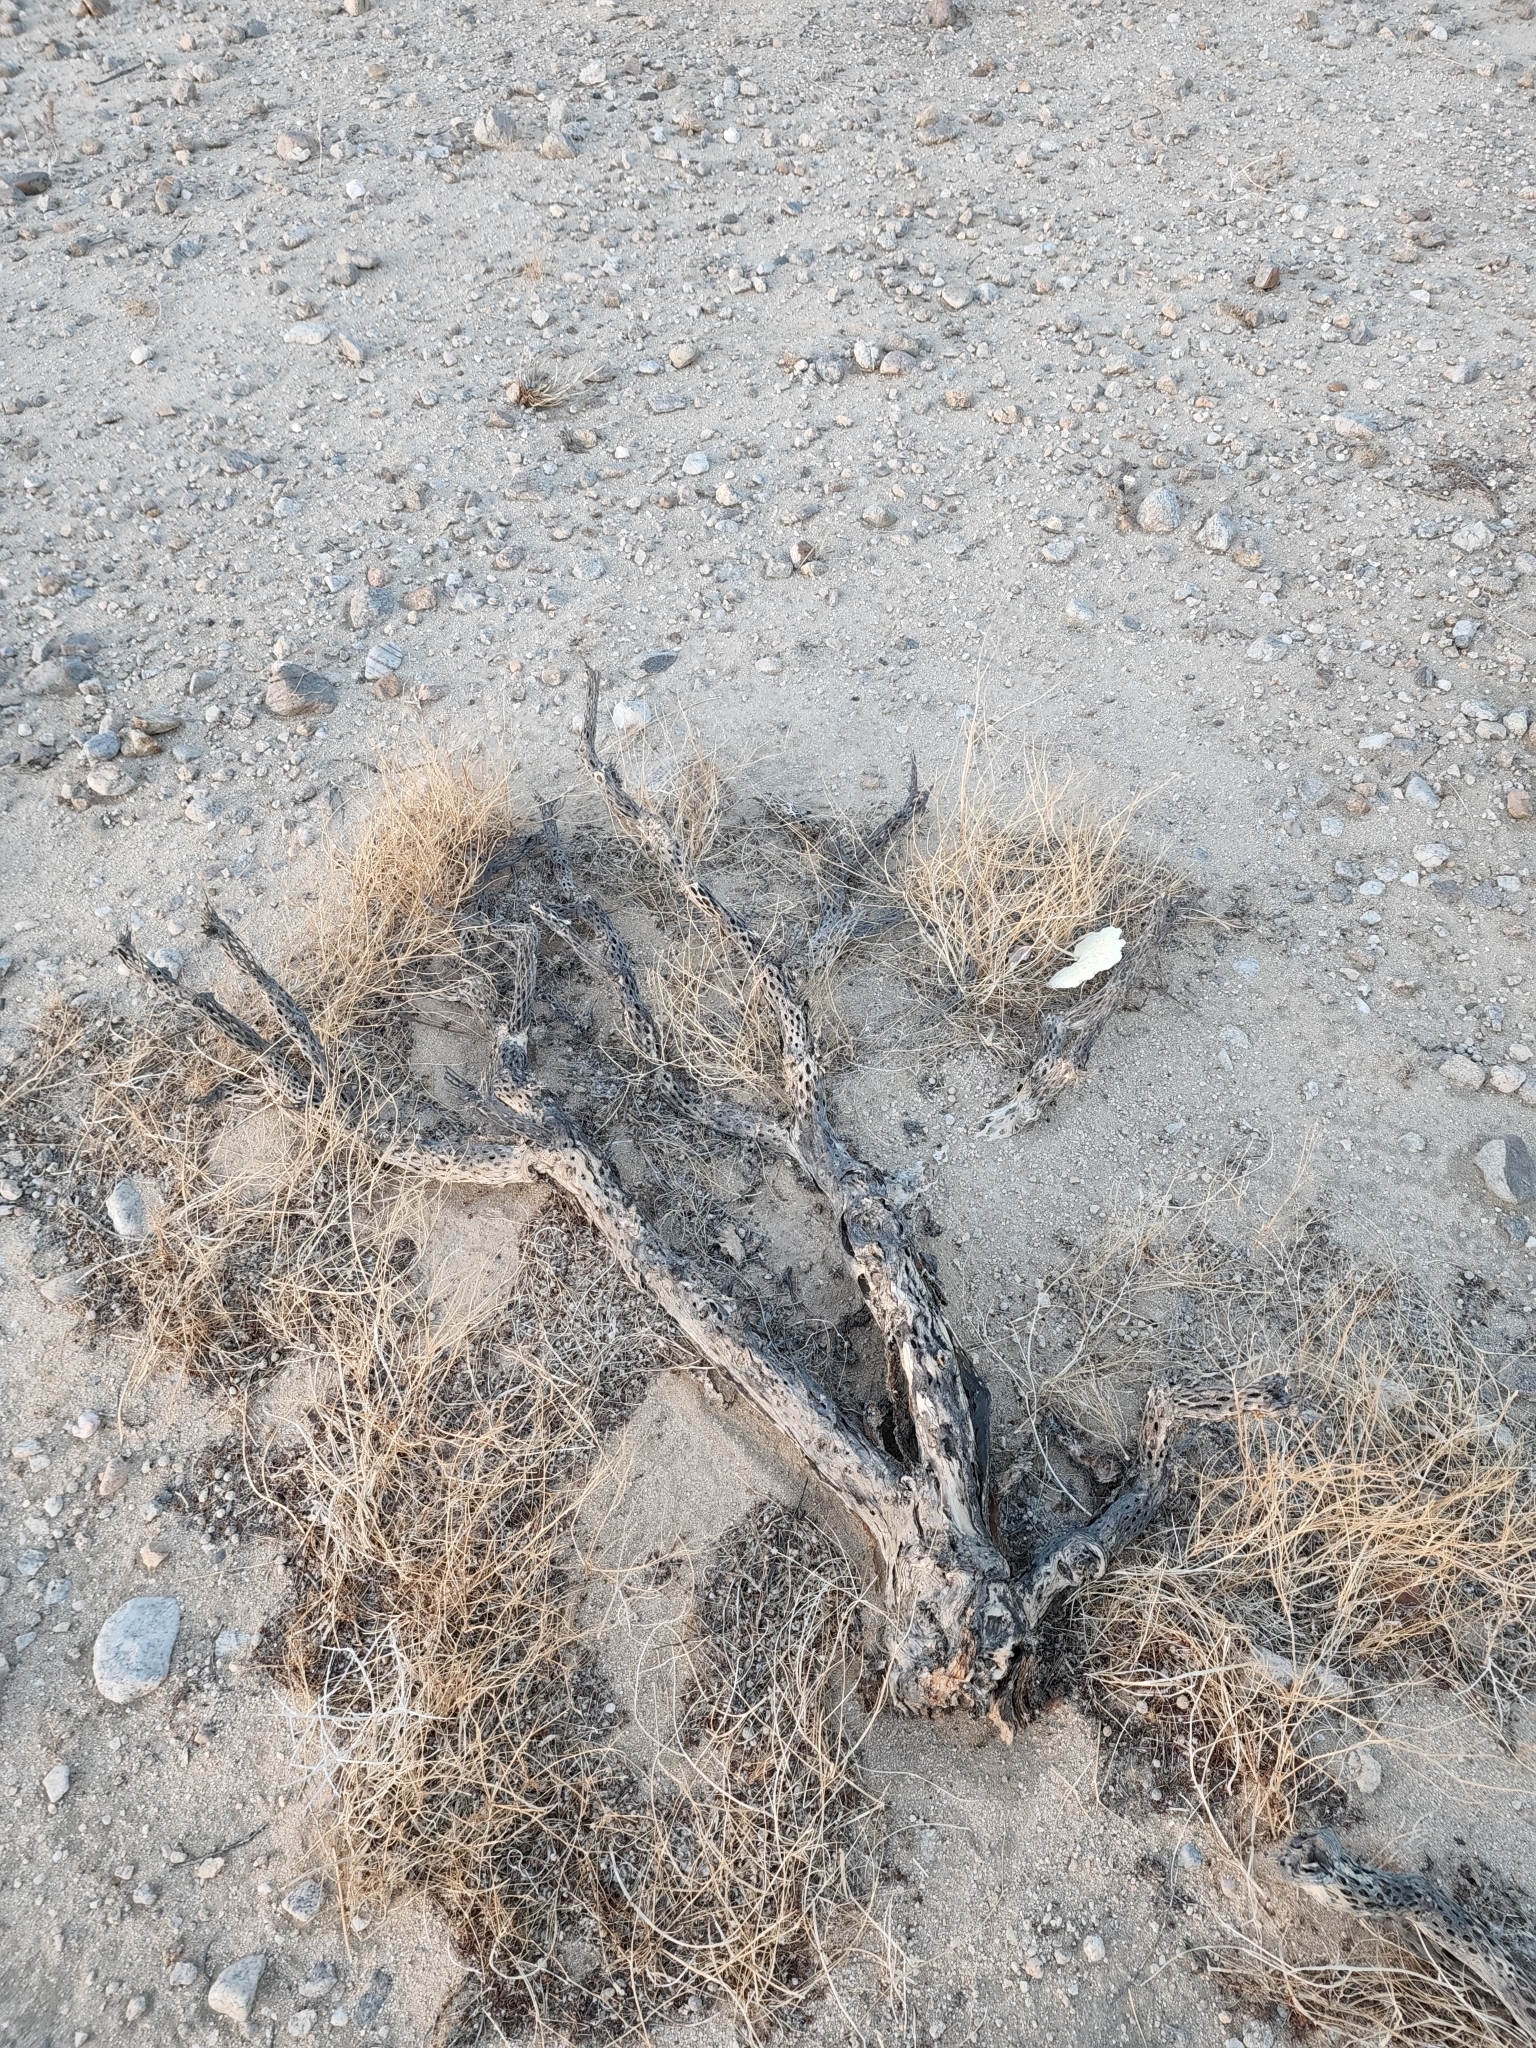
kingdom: Plantae
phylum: Tracheophyta
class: Magnoliopsida
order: Caryophyllales
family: Cactaceae
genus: Cylindropuntia
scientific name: Cylindropuntia echinocarpa
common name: Ground cholla
